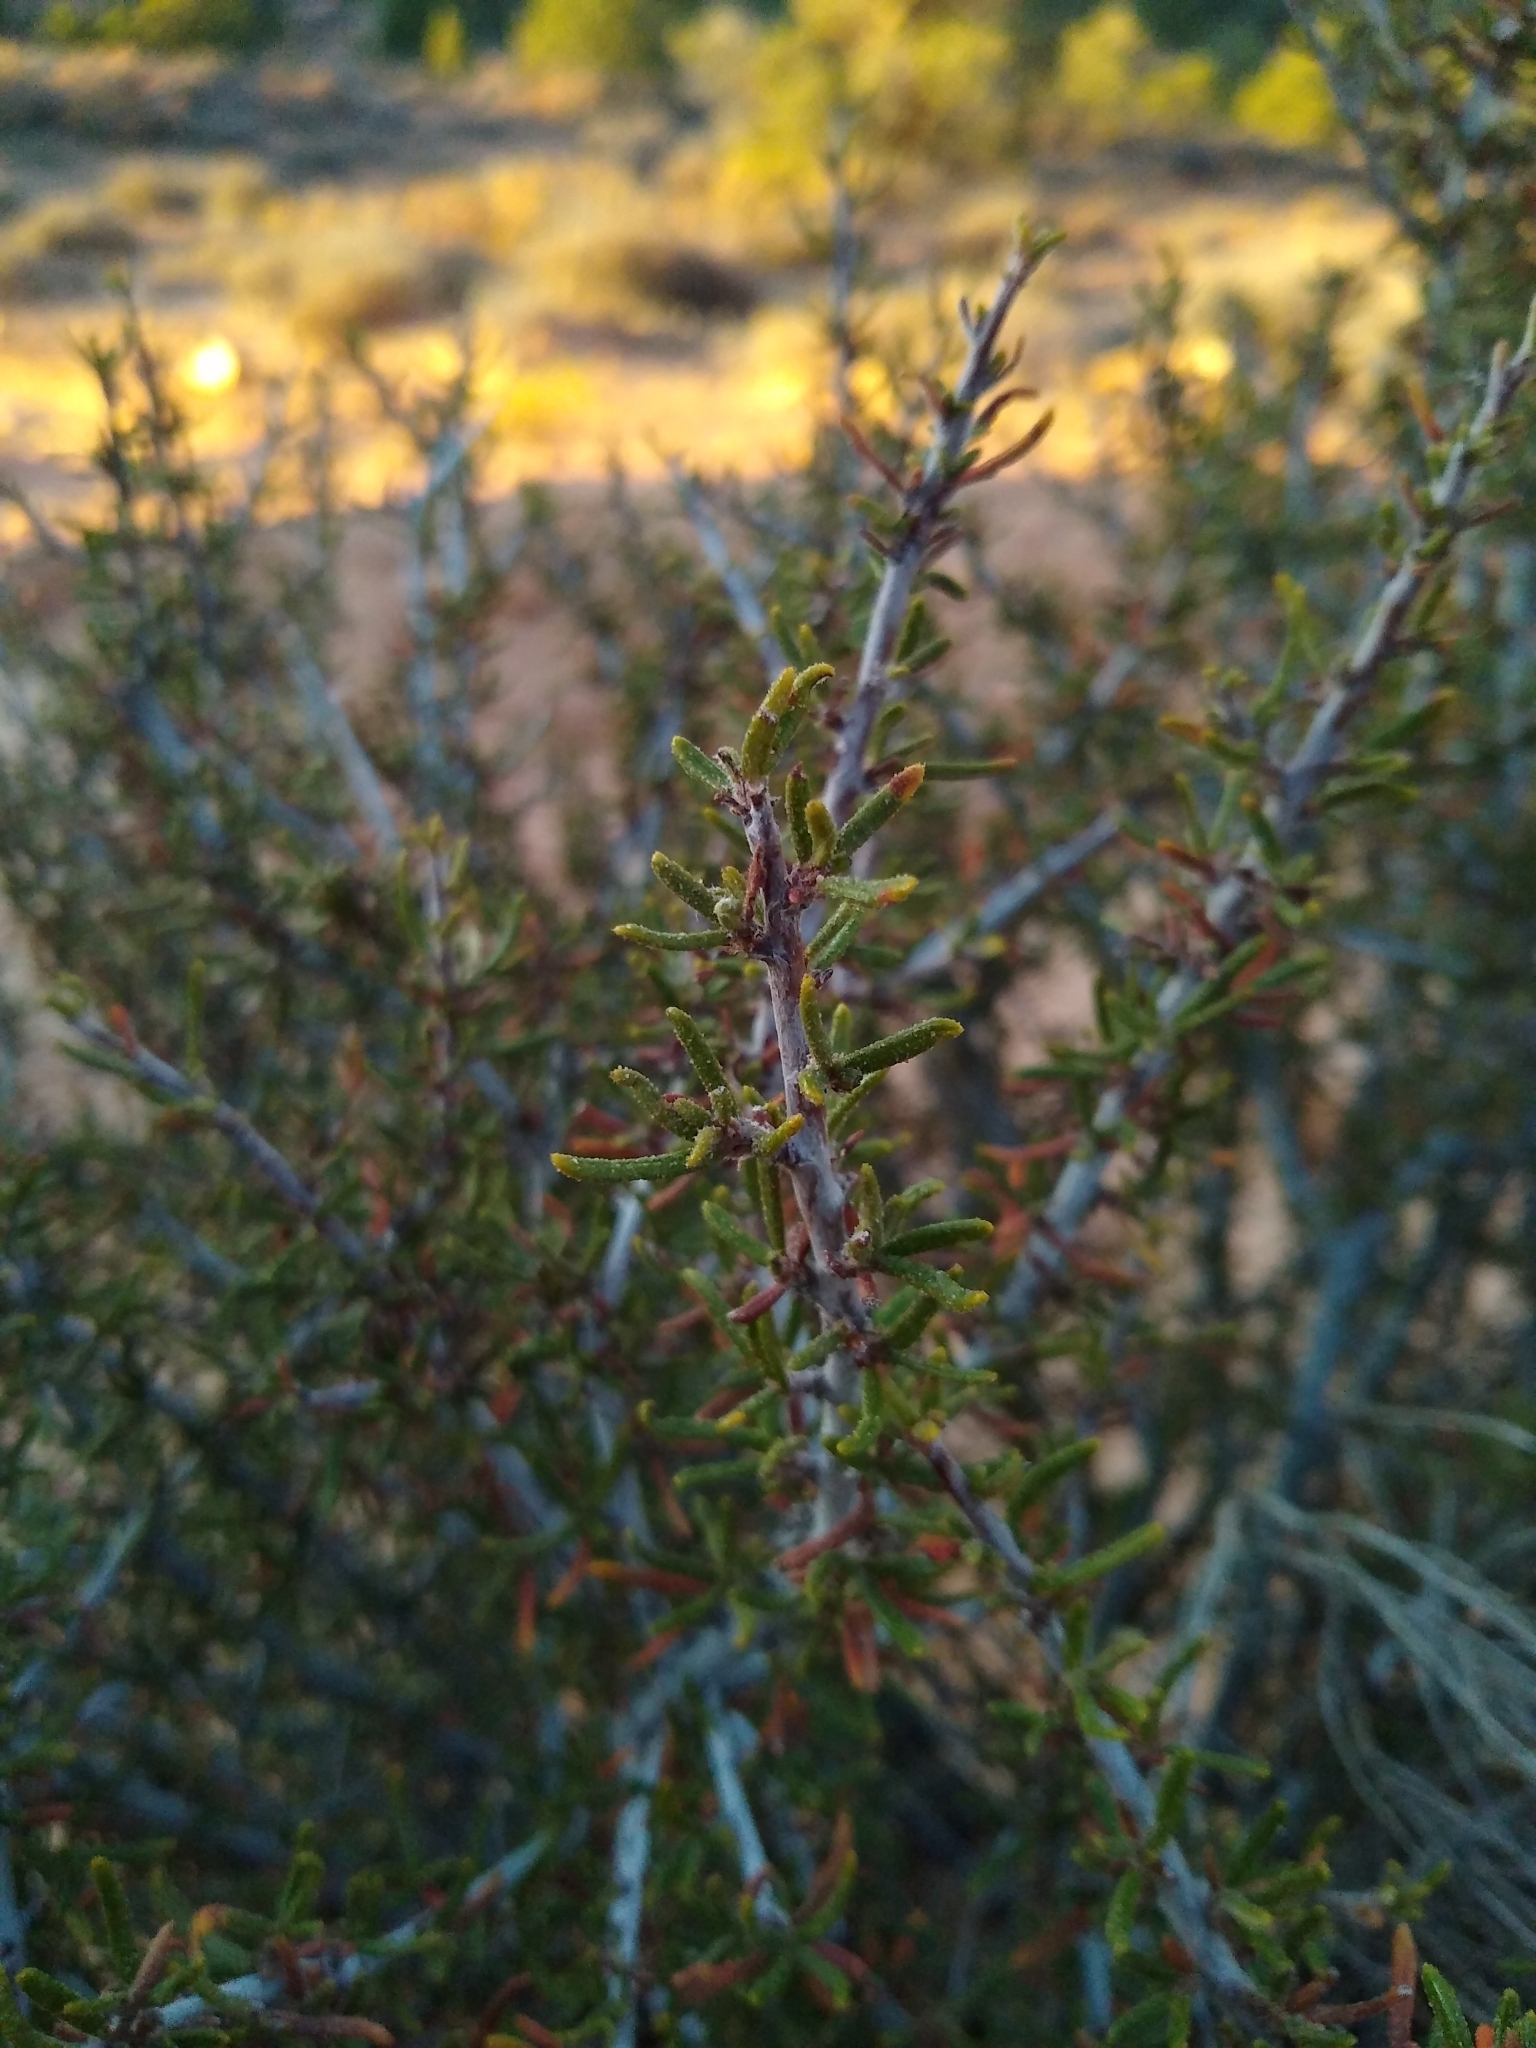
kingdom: Plantae
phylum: Tracheophyta
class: Magnoliopsida
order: Rosales
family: Rosaceae
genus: Cercocarpus
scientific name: Cercocarpus intricatus
